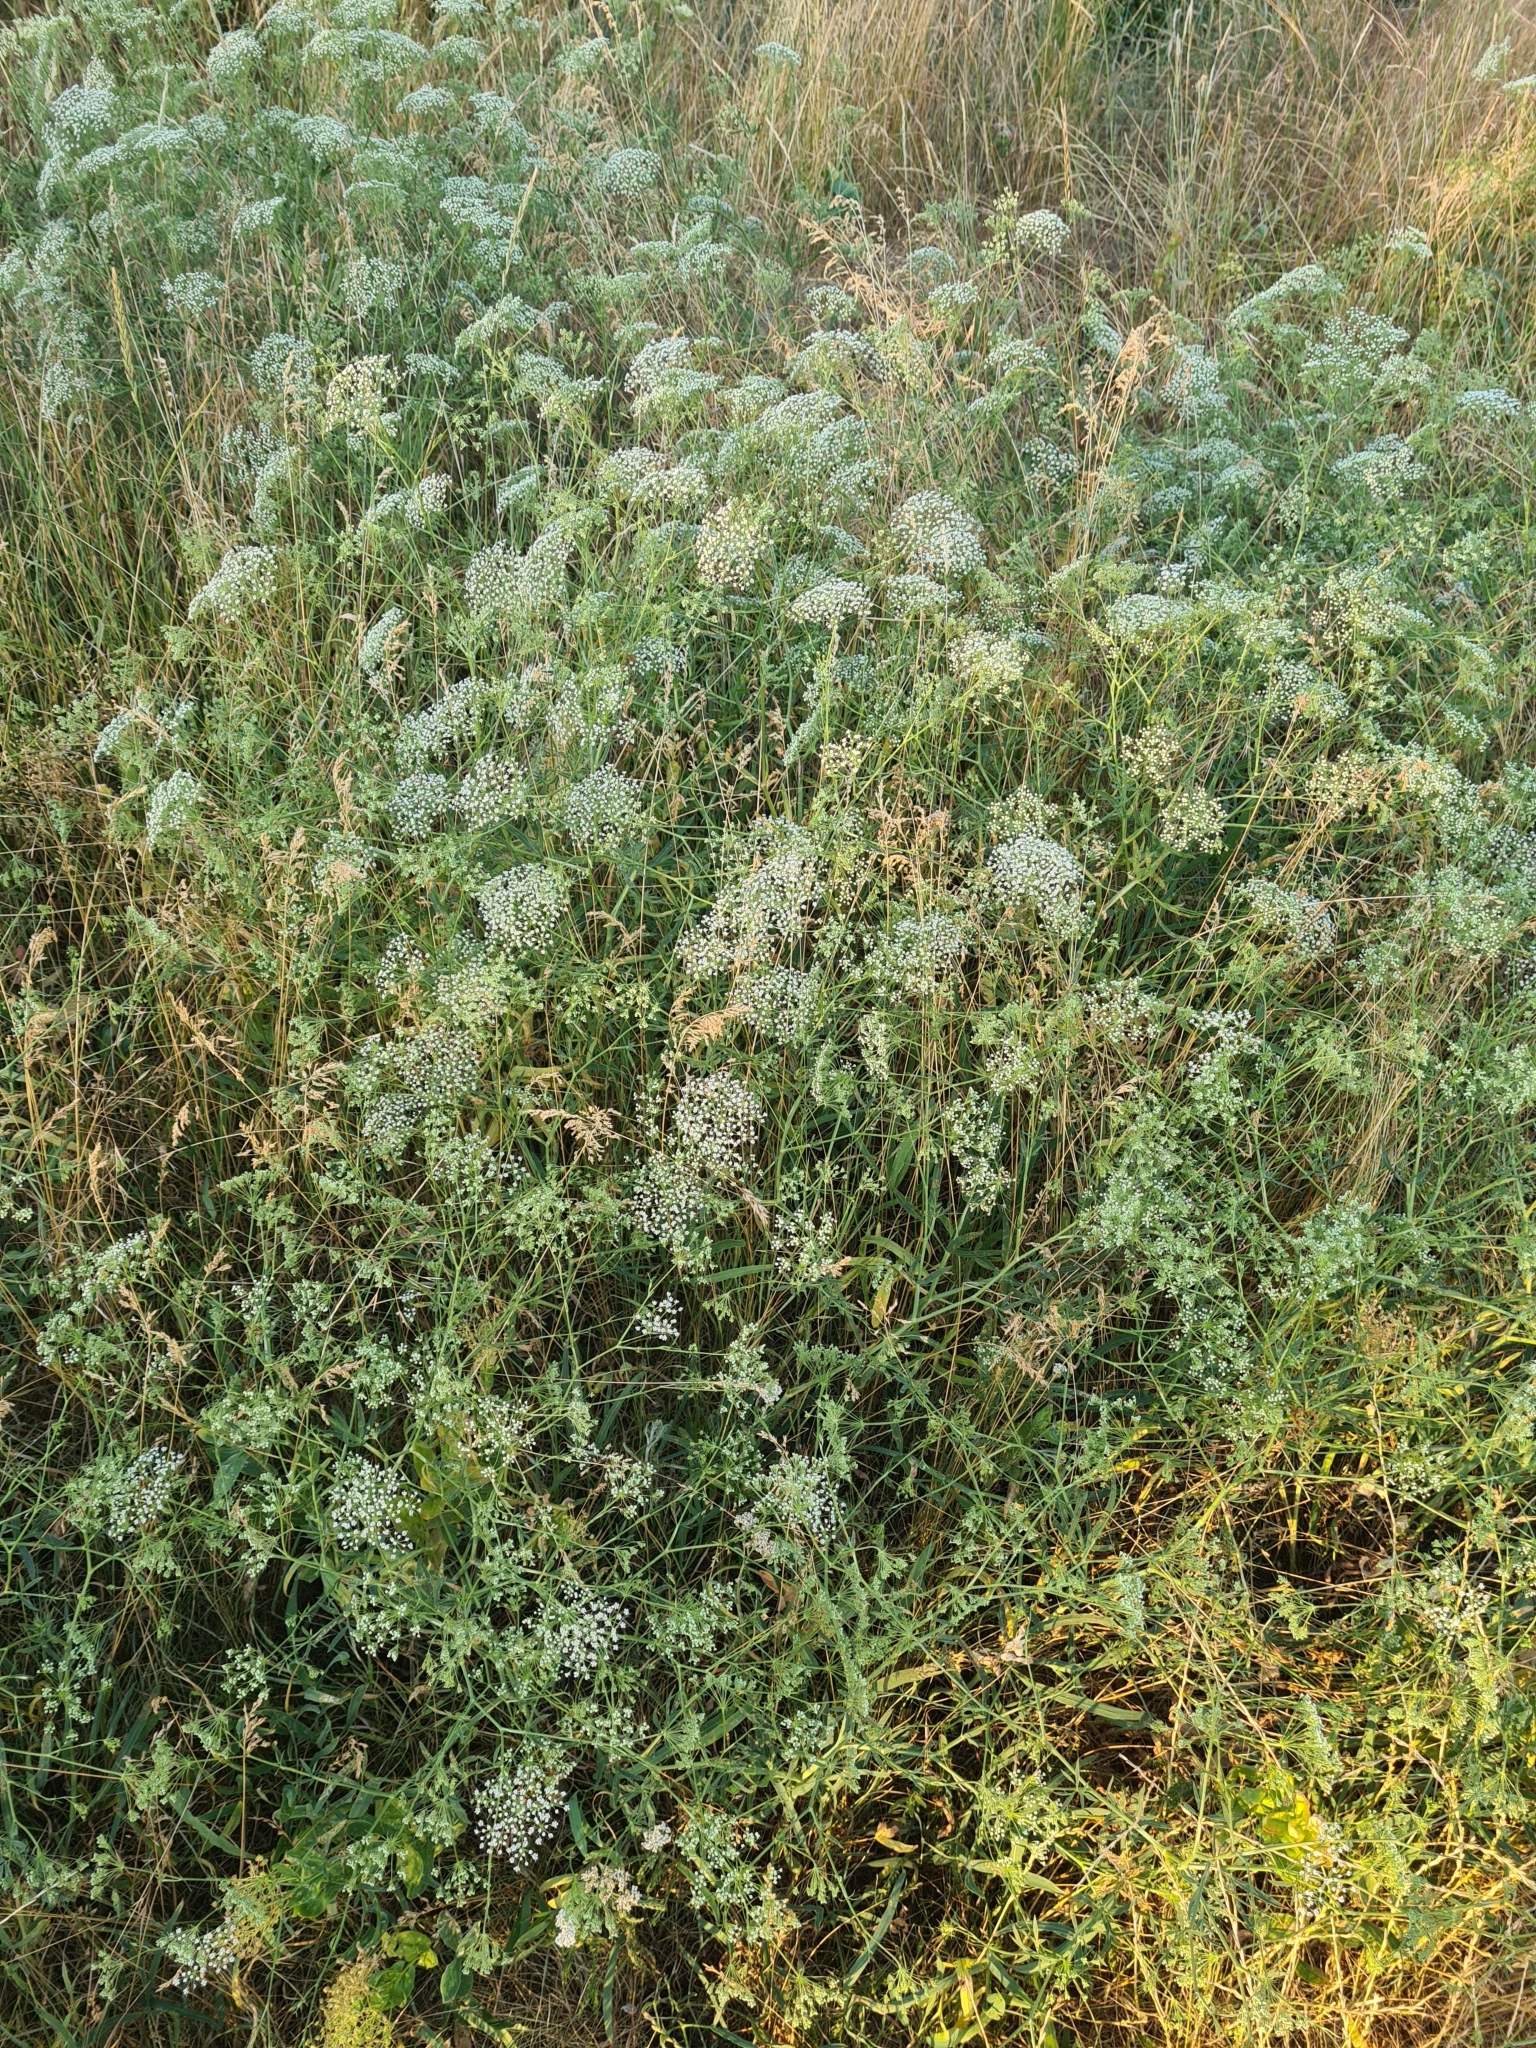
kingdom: Plantae
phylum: Tracheophyta
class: Magnoliopsida
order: Apiales
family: Apiaceae
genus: Falcaria
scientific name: Falcaria vulgaris
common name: Longleaf
